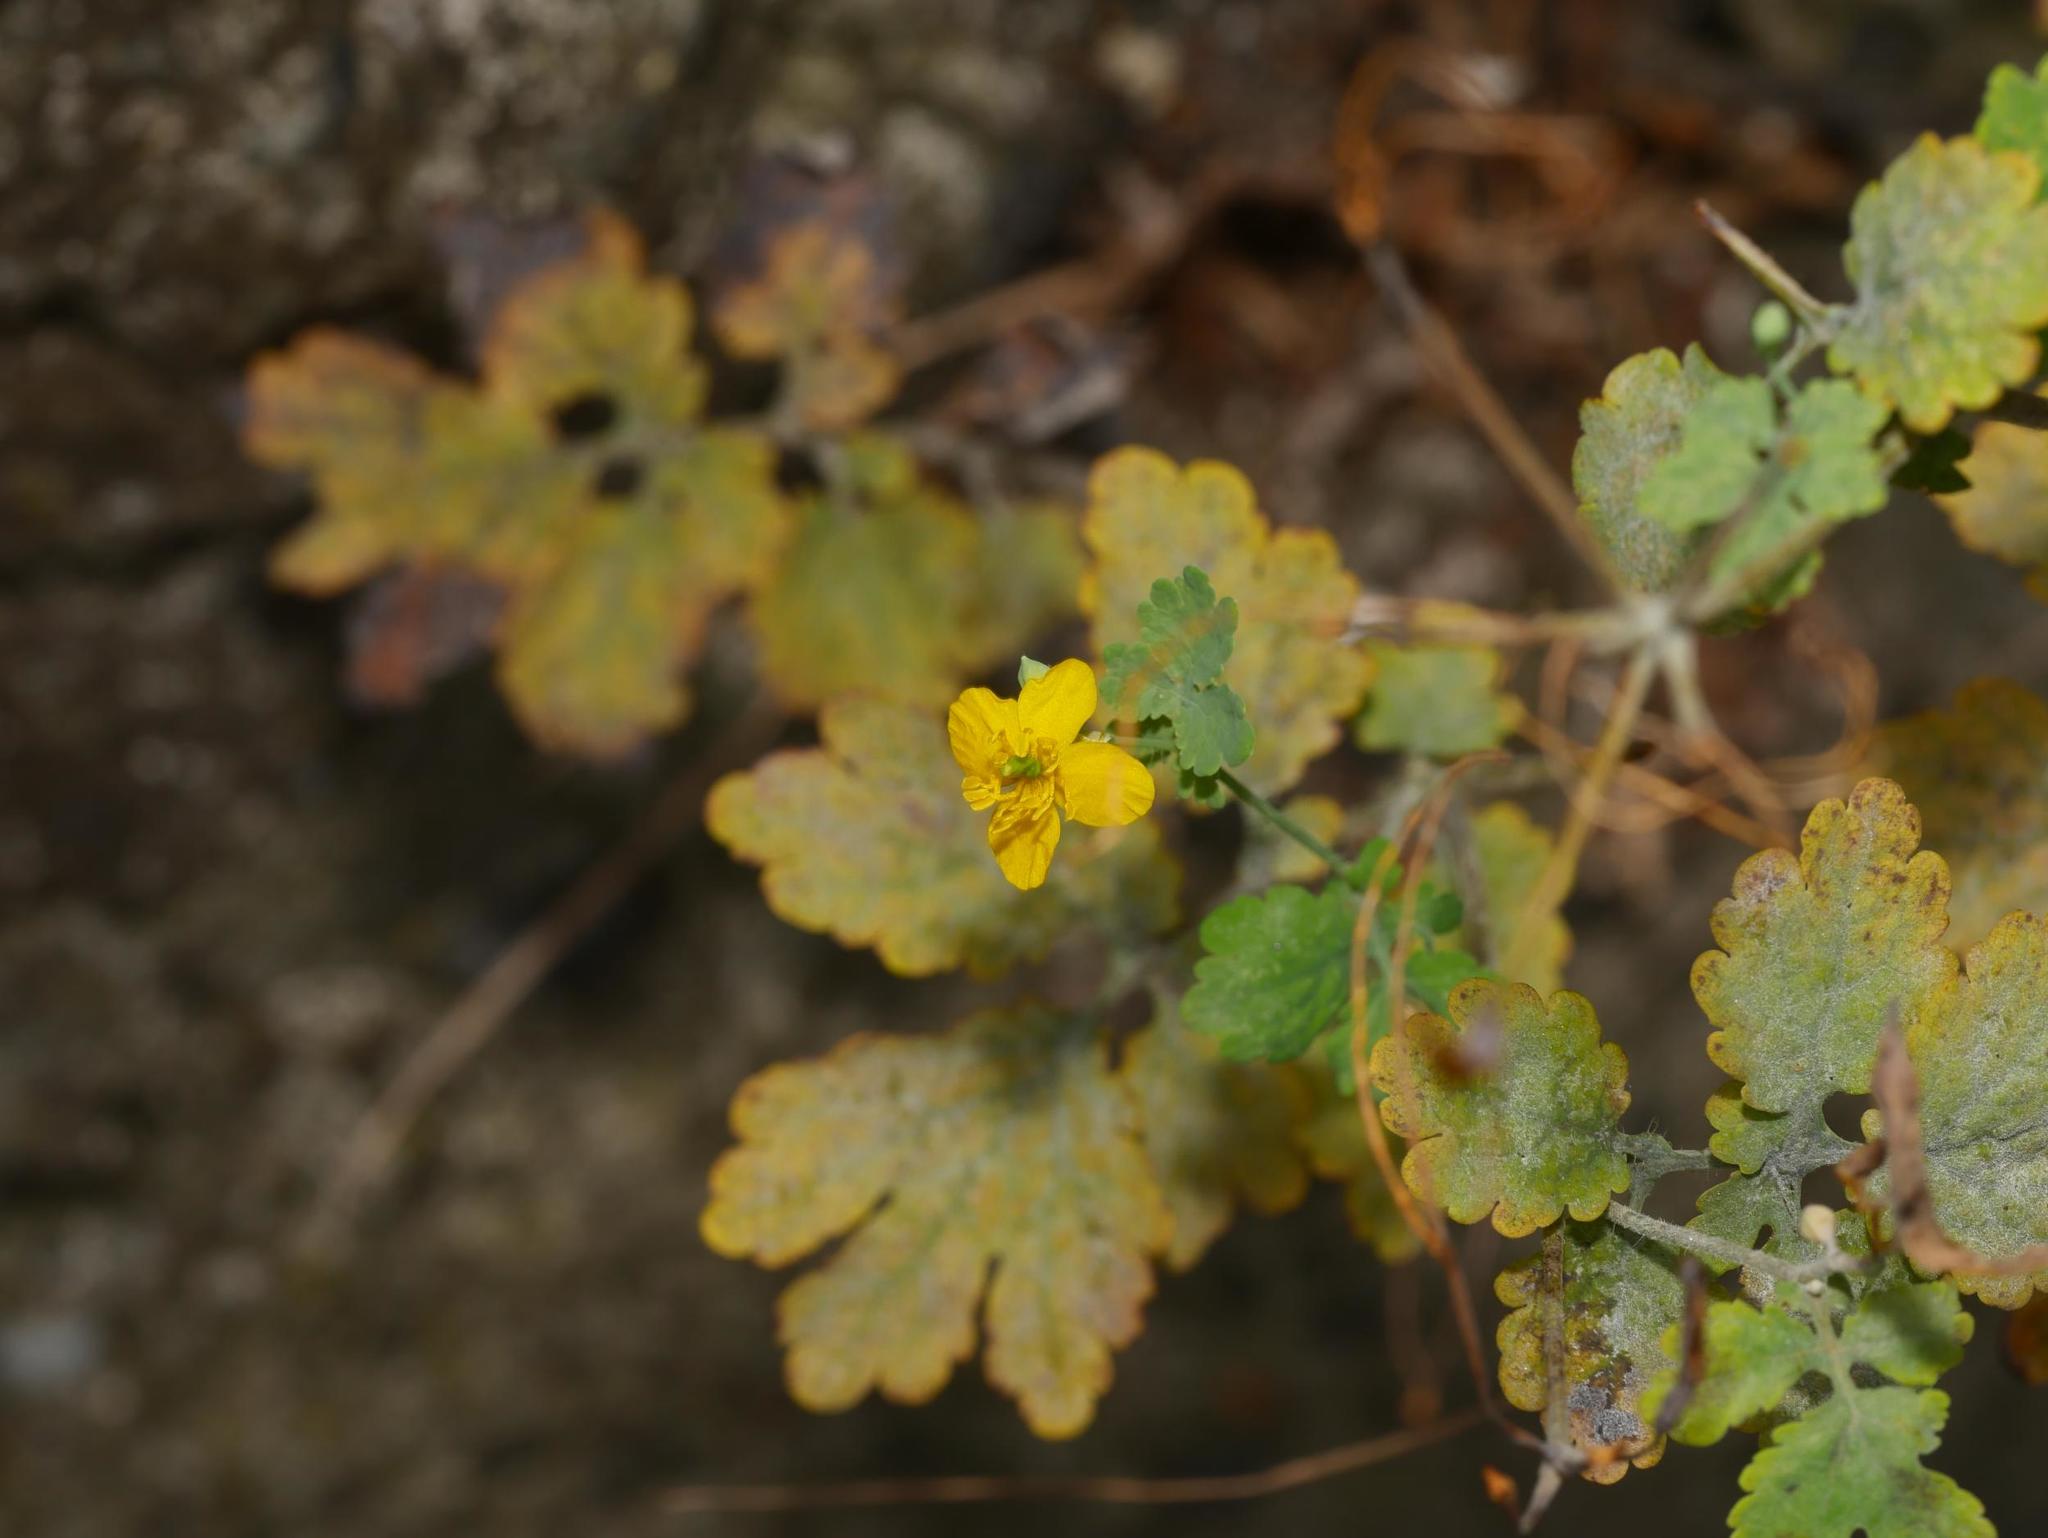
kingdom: Plantae
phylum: Tracheophyta
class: Magnoliopsida
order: Ranunculales
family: Papaveraceae
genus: Chelidonium
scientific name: Chelidonium majus
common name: Greater celandine
